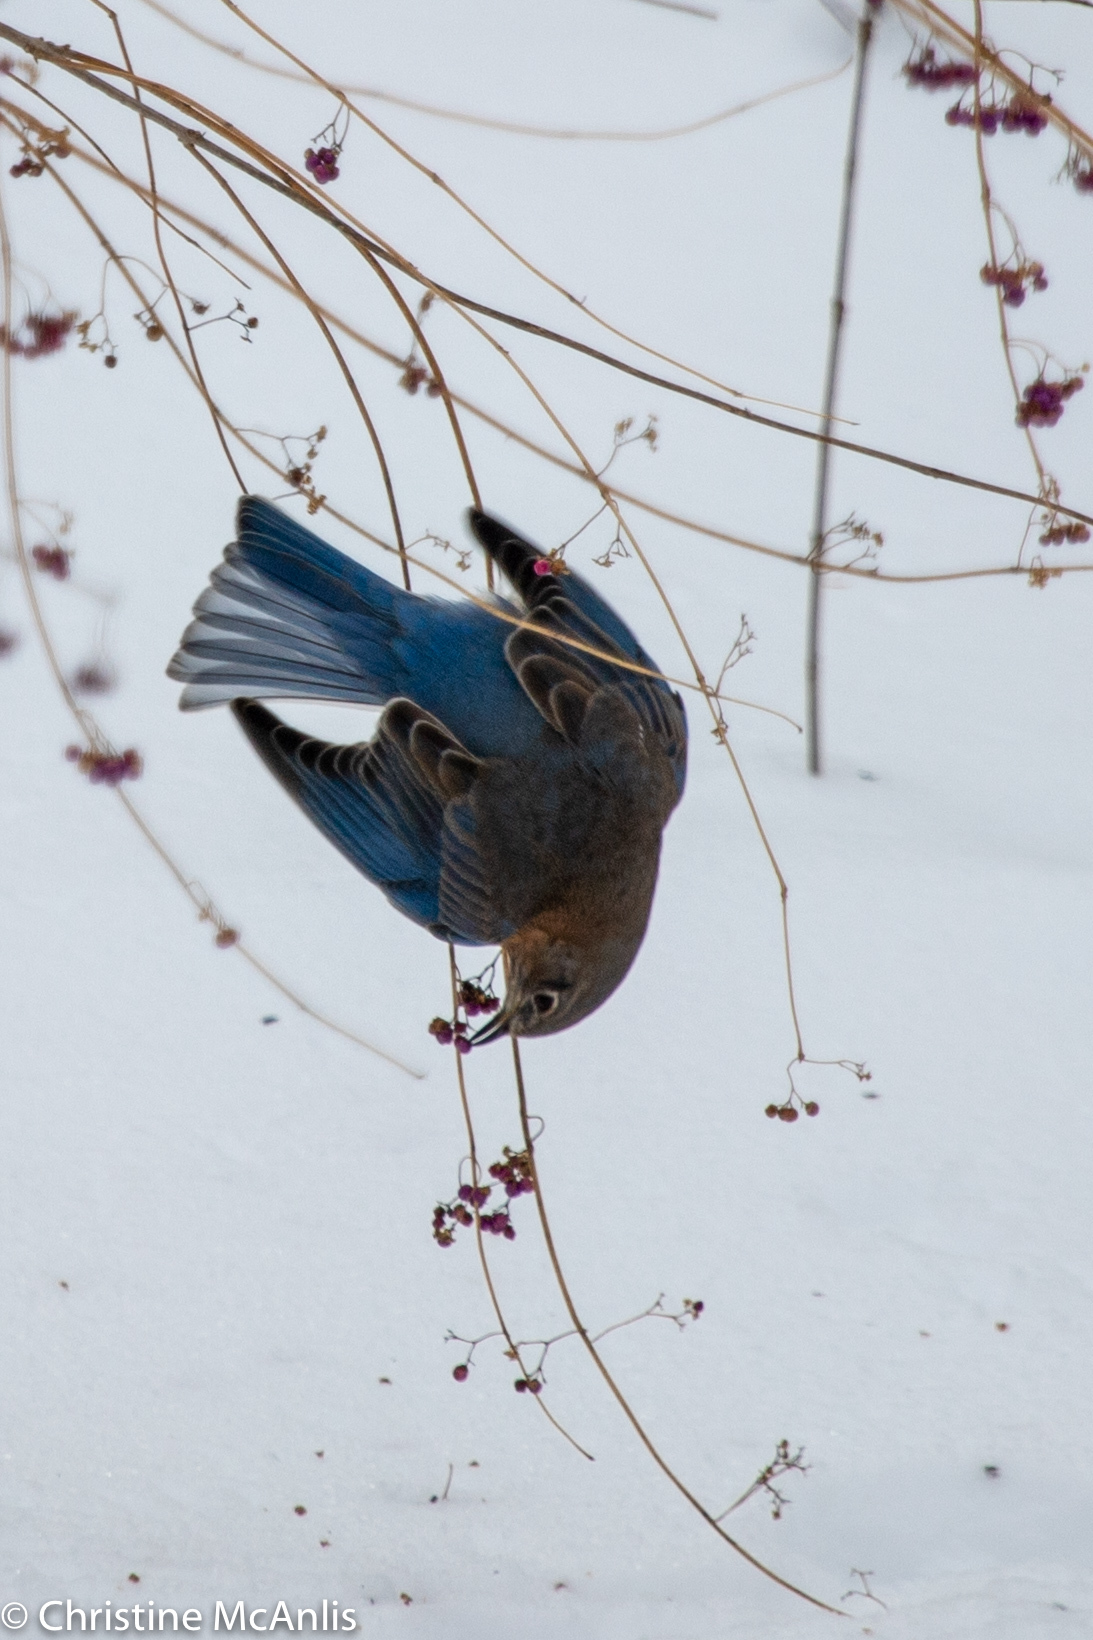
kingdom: Animalia
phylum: Chordata
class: Aves
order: Passeriformes
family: Turdidae
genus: Sialia
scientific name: Sialia sialis
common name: Eastern bluebird
